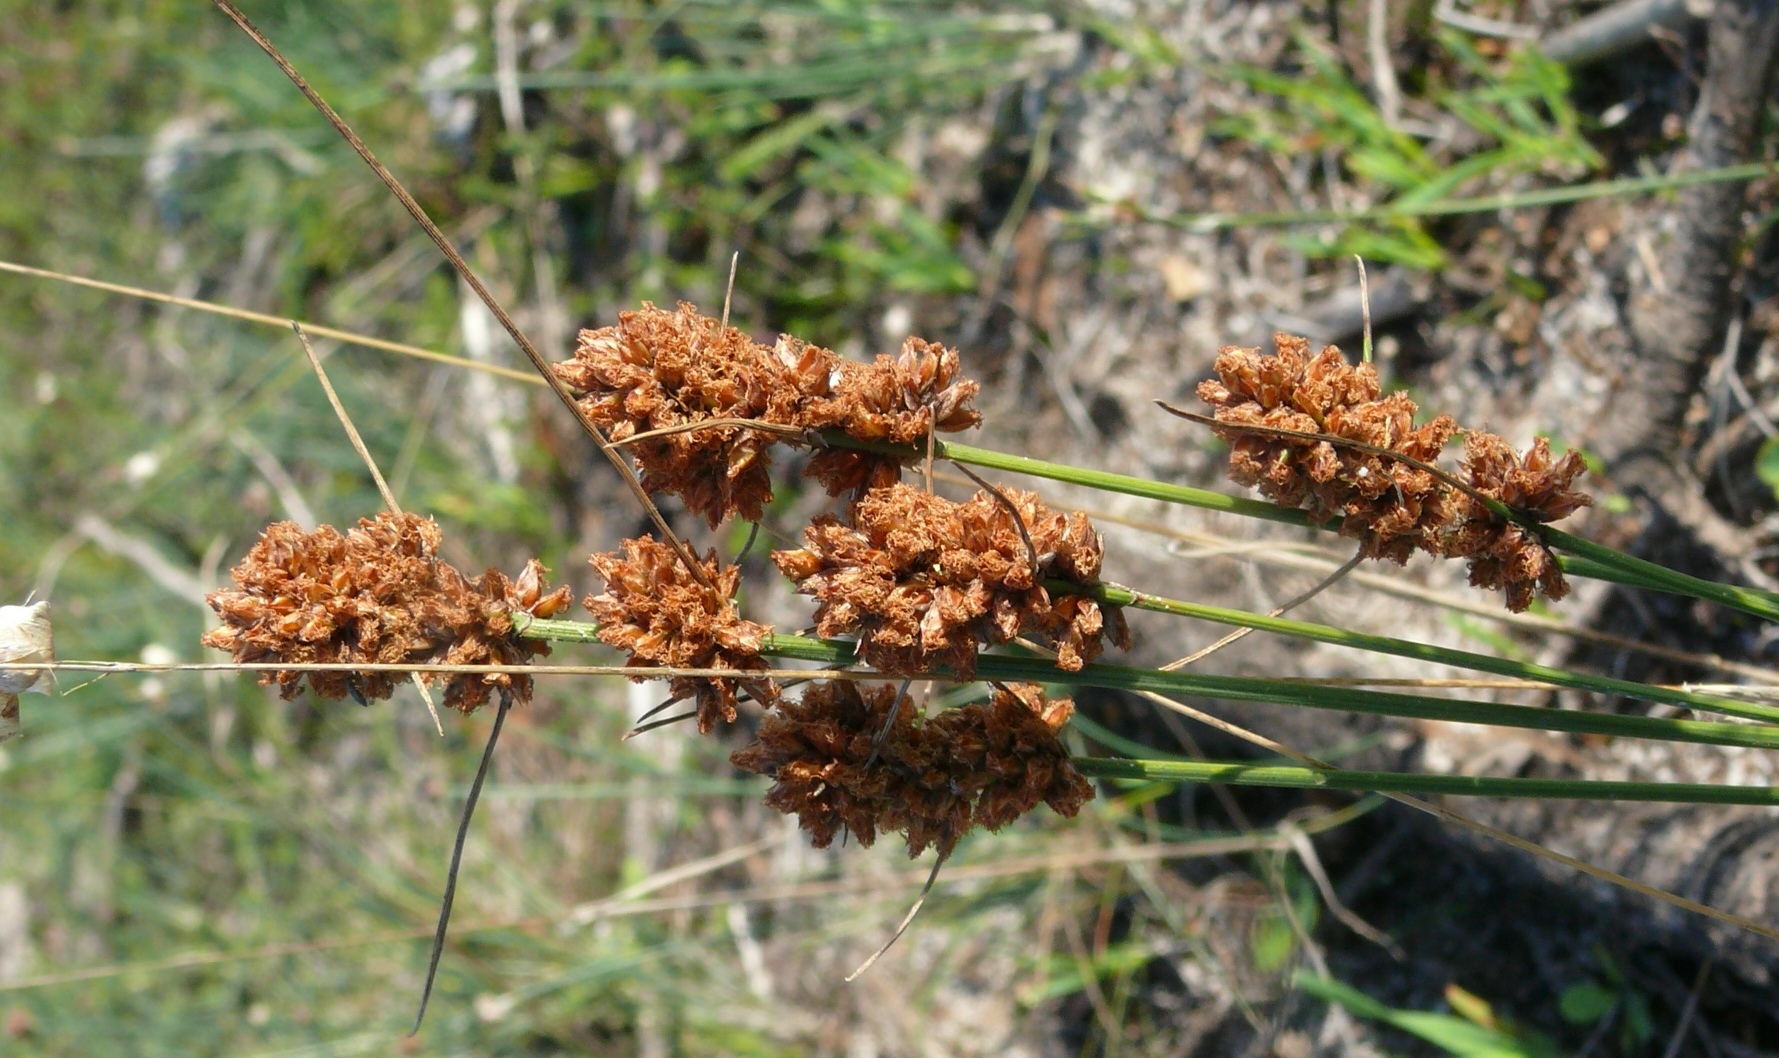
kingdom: Plantae
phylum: Tracheophyta
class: Liliopsida
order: Poales
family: Cyperaceae
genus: Ficinia
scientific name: Ficinia bulbosa
